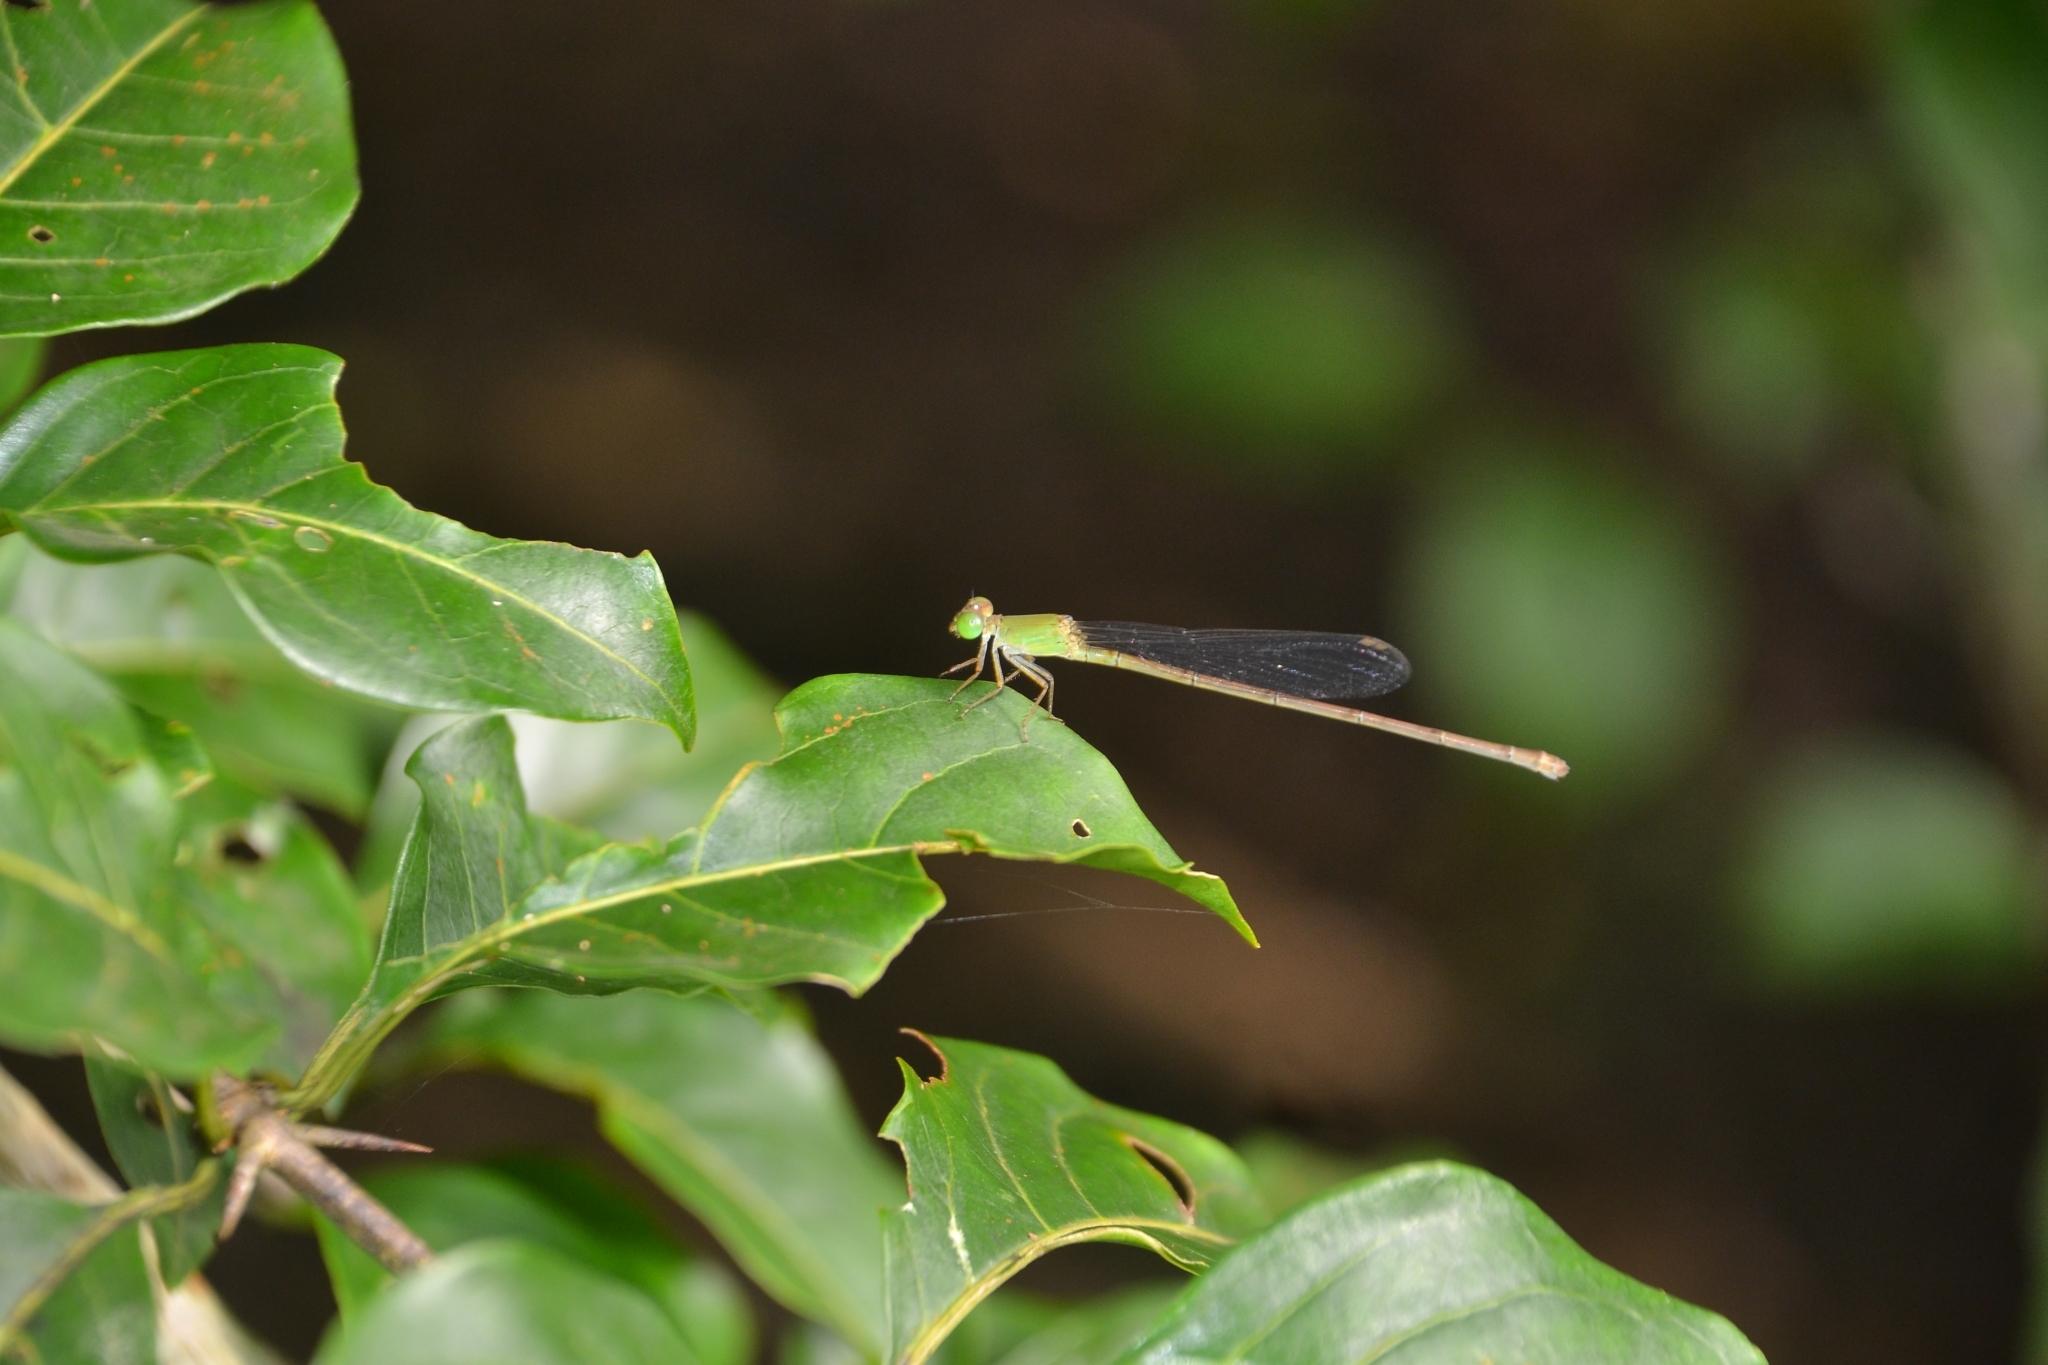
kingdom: Animalia
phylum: Arthropoda
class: Insecta
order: Odonata
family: Coenagrionidae
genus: Ceriagrion
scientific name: Ceriagrion coromandelianum
